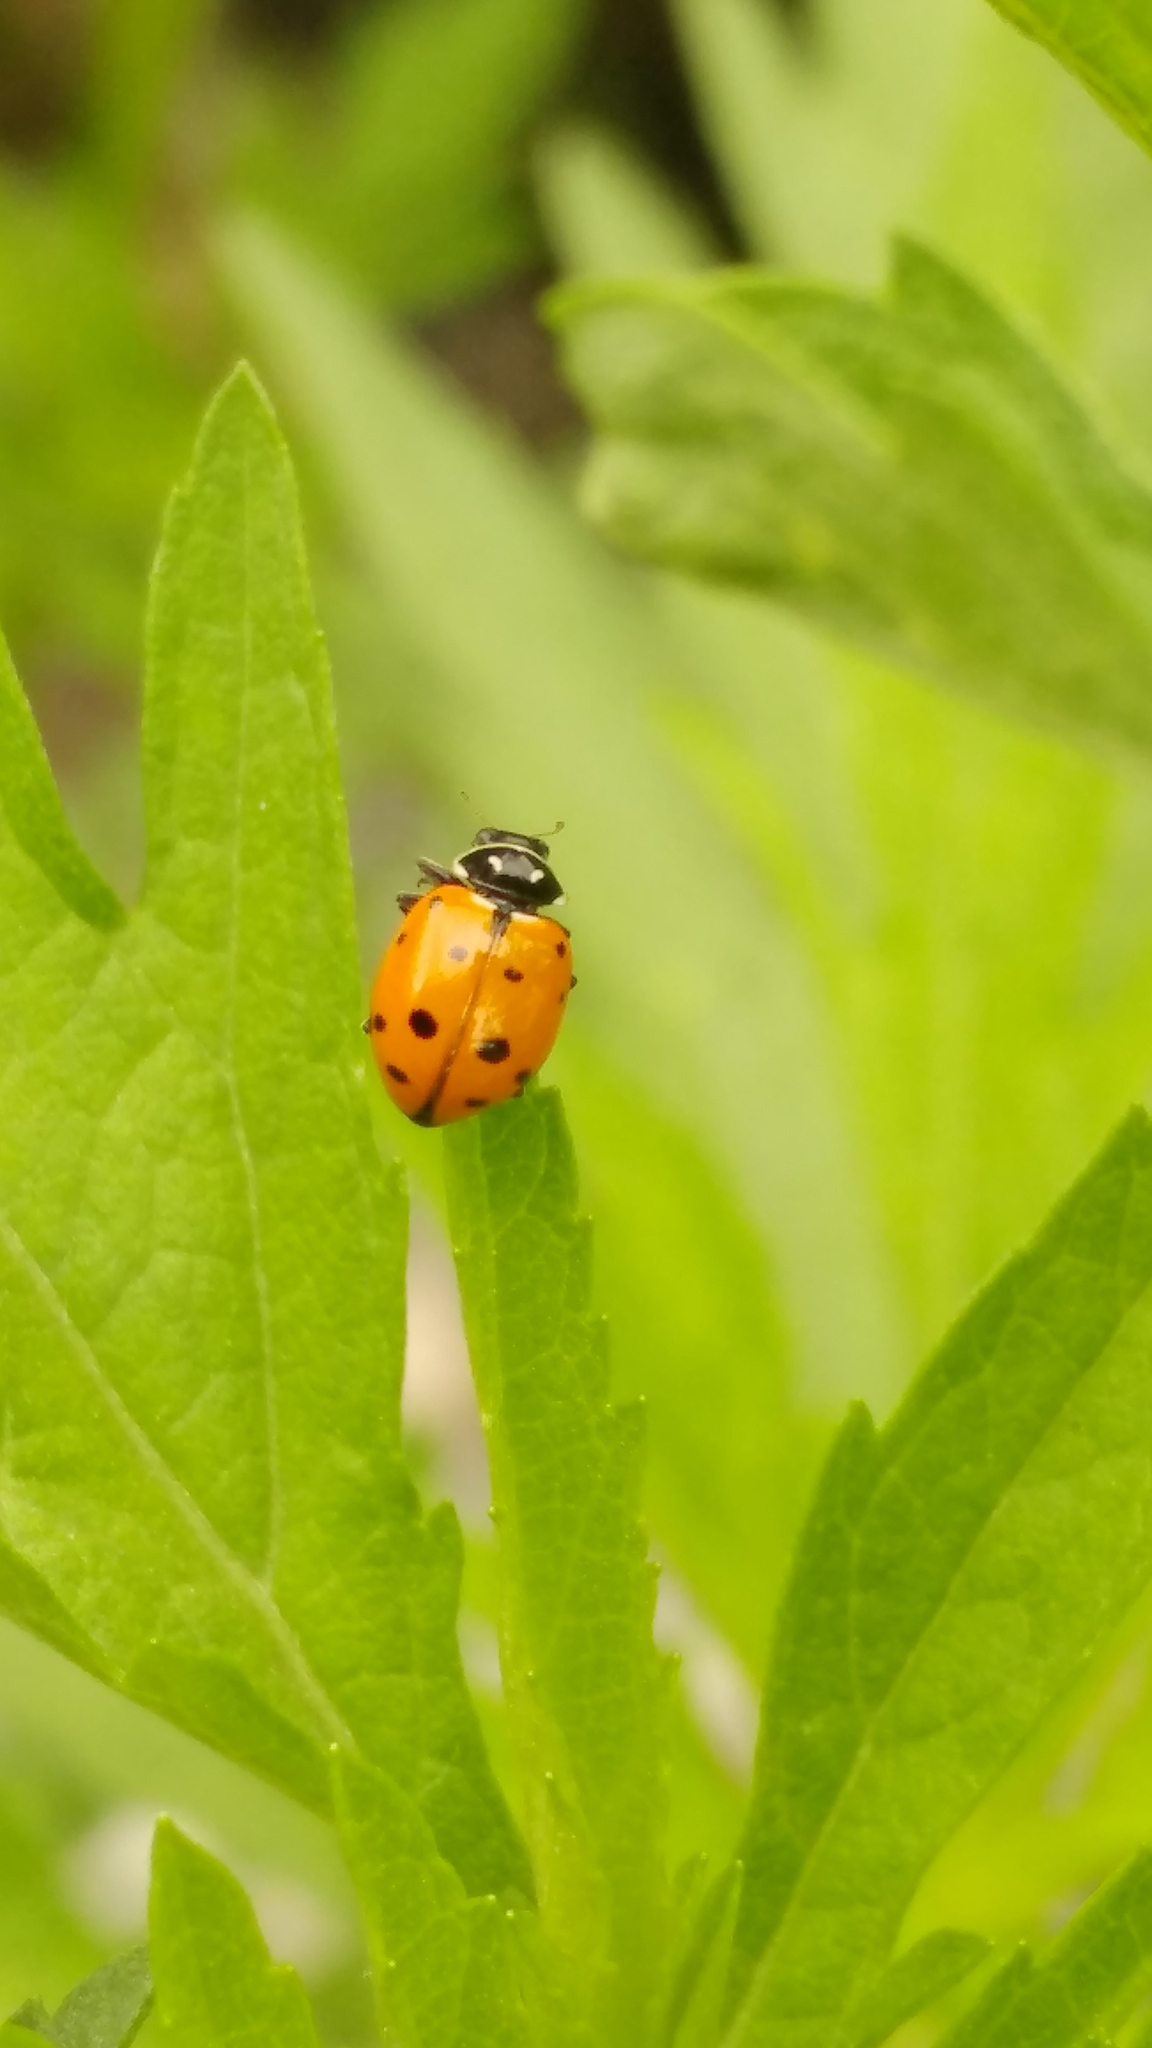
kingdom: Animalia
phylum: Arthropoda
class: Insecta
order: Coleoptera
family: Coccinellidae
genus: Hippodamia
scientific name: Hippodamia convergens
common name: Convergent lady beetle
